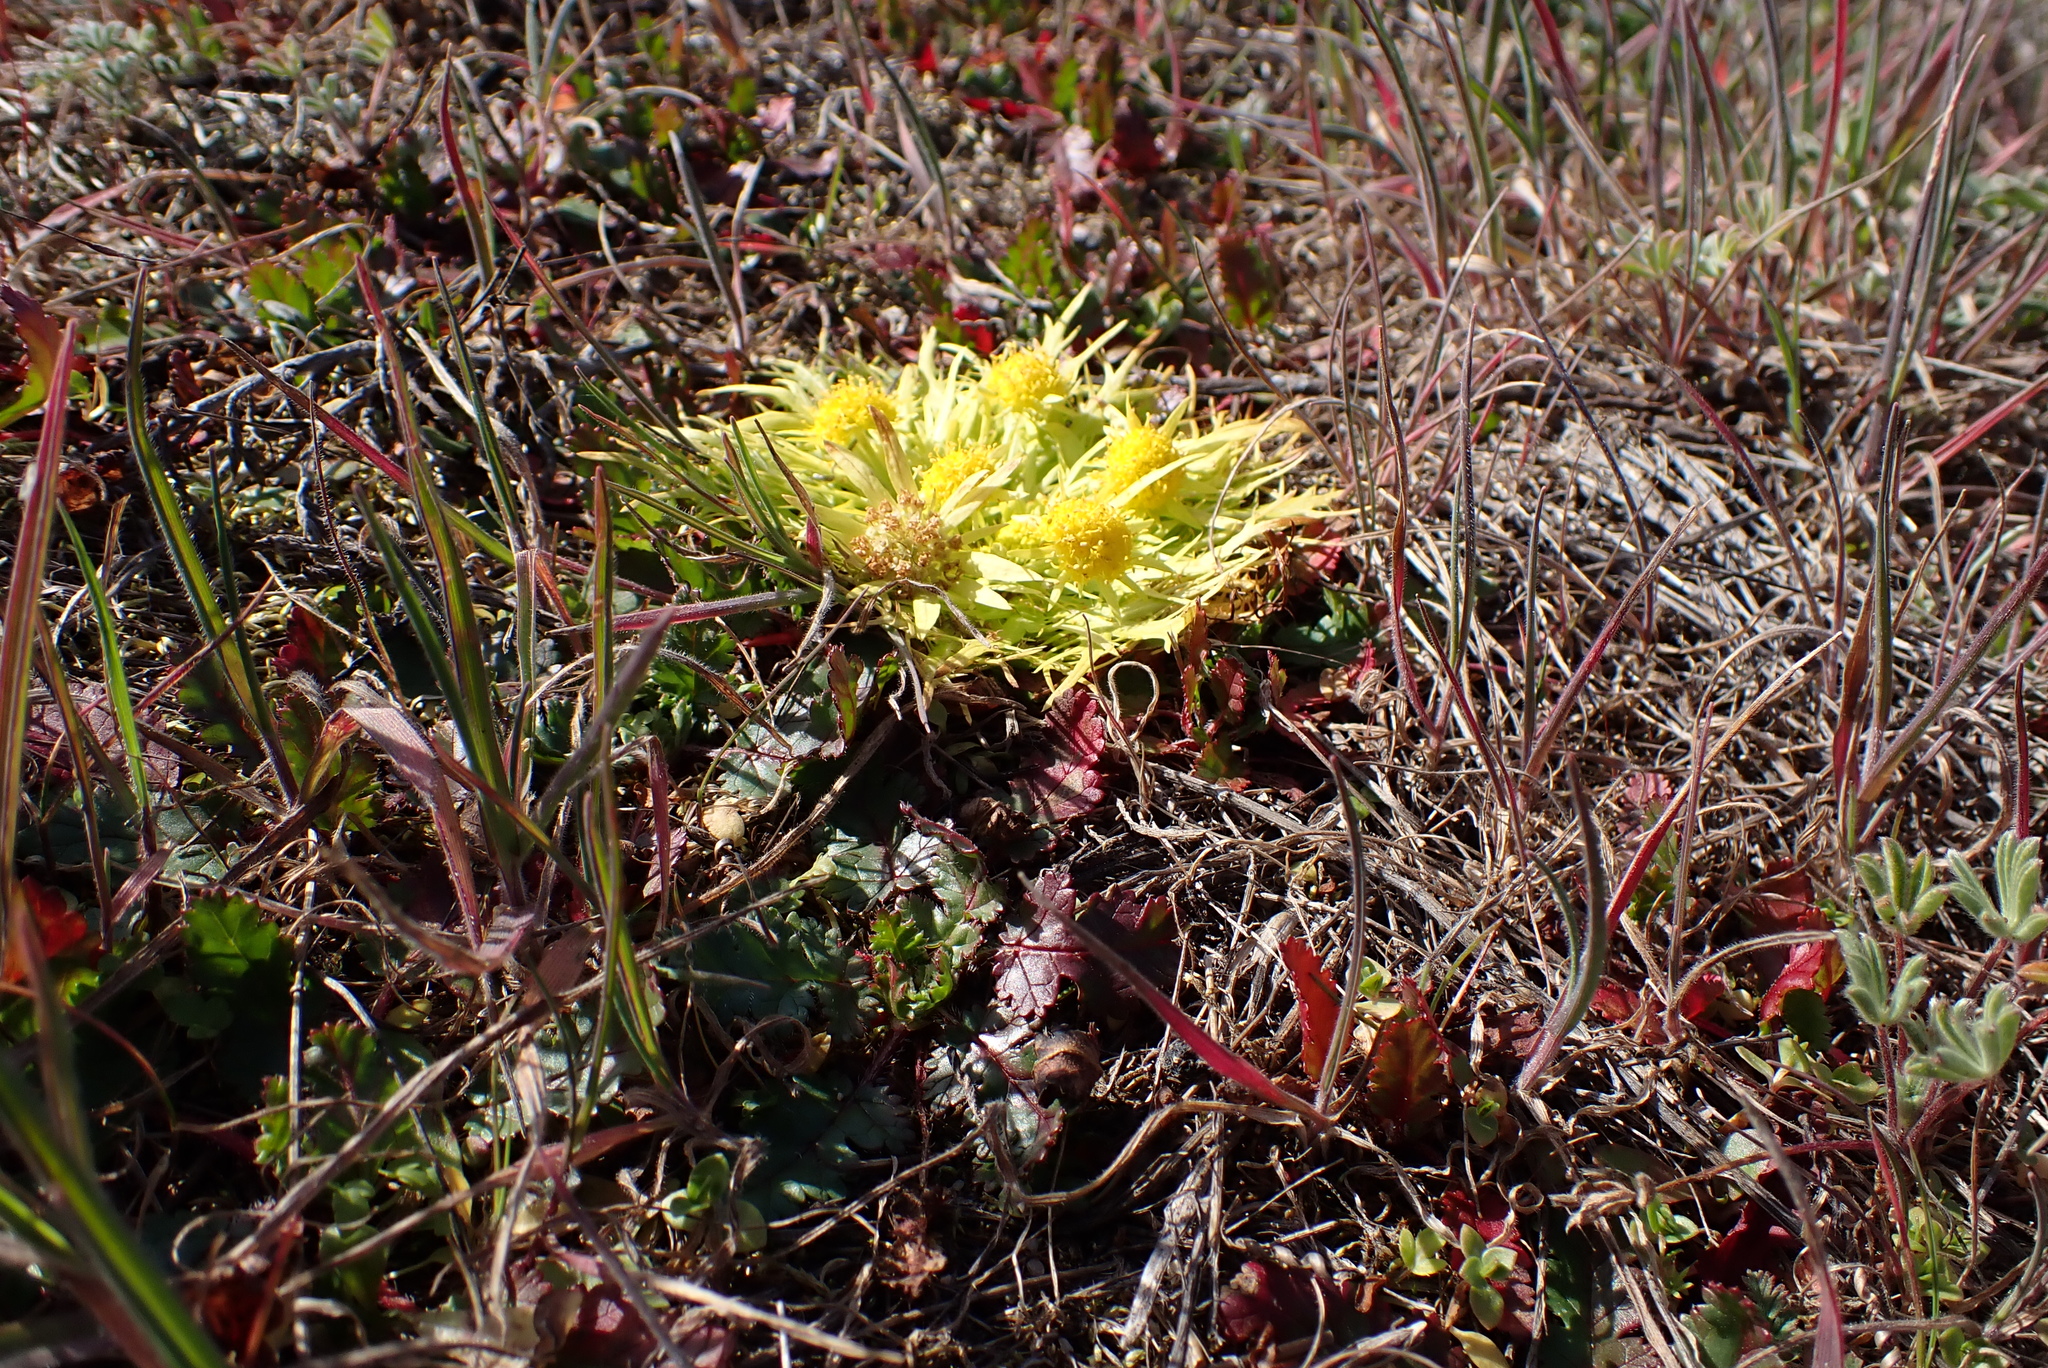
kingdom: Plantae
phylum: Tracheophyta
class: Magnoliopsida
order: Apiales
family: Apiaceae
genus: Sanicula
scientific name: Sanicula arctopoides
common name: Footsteps-of-spring
